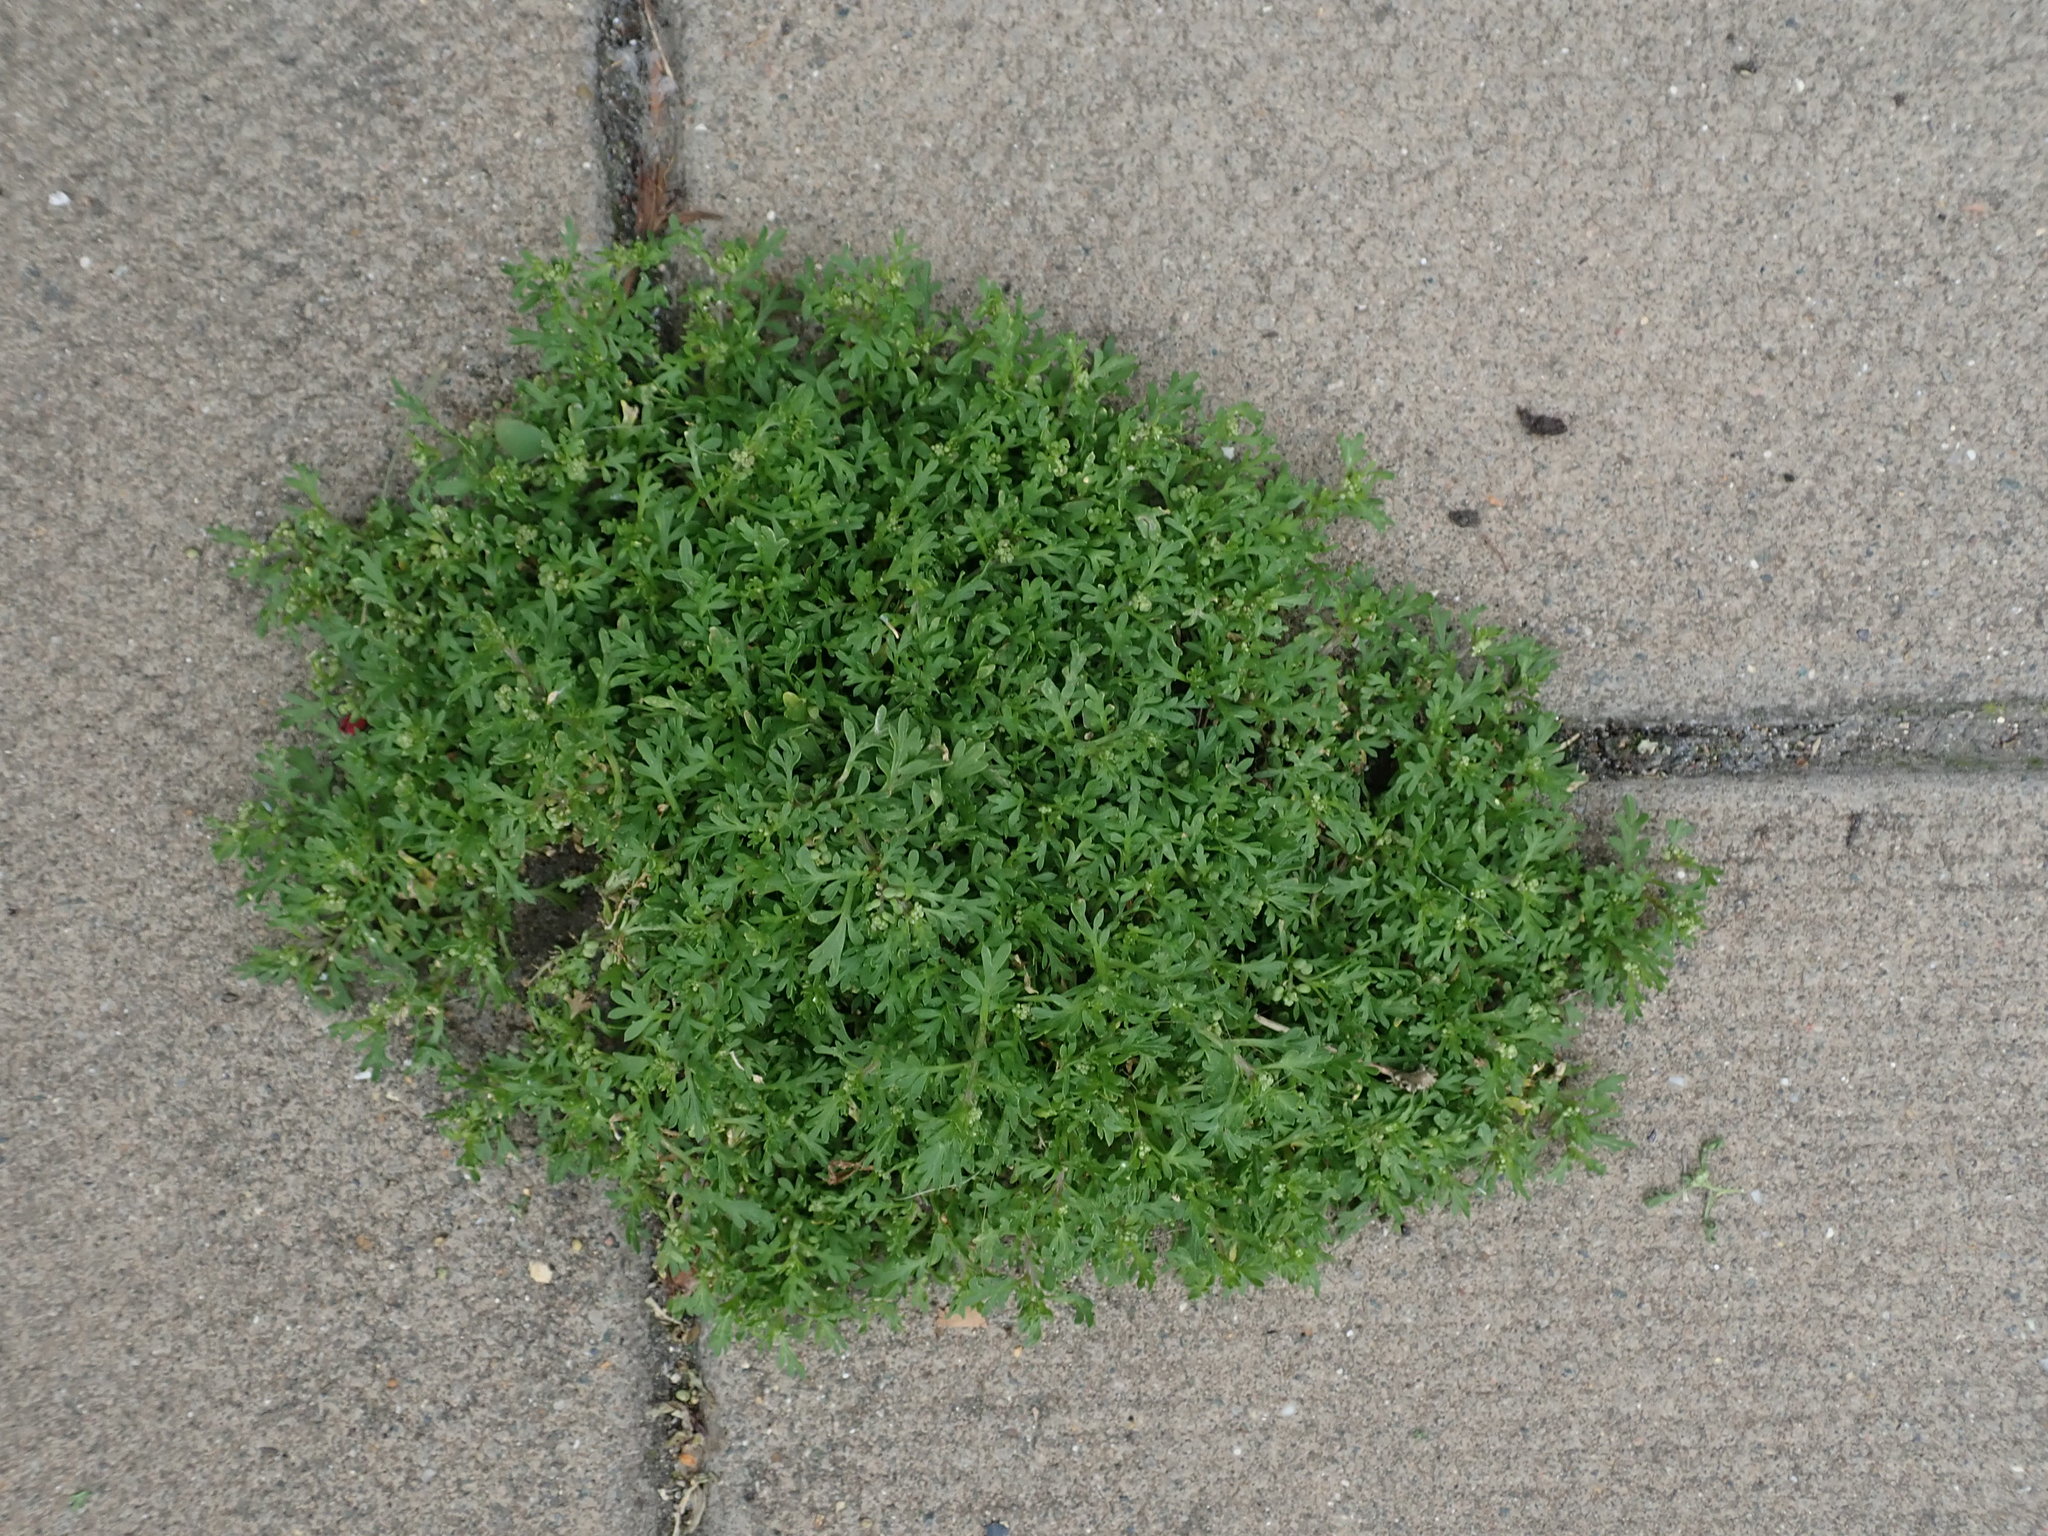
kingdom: Plantae
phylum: Tracheophyta
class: Magnoliopsida
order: Brassicales
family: Brassicaceae
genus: Lepidium
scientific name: Lepidium didymum
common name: Lesser swinecress
